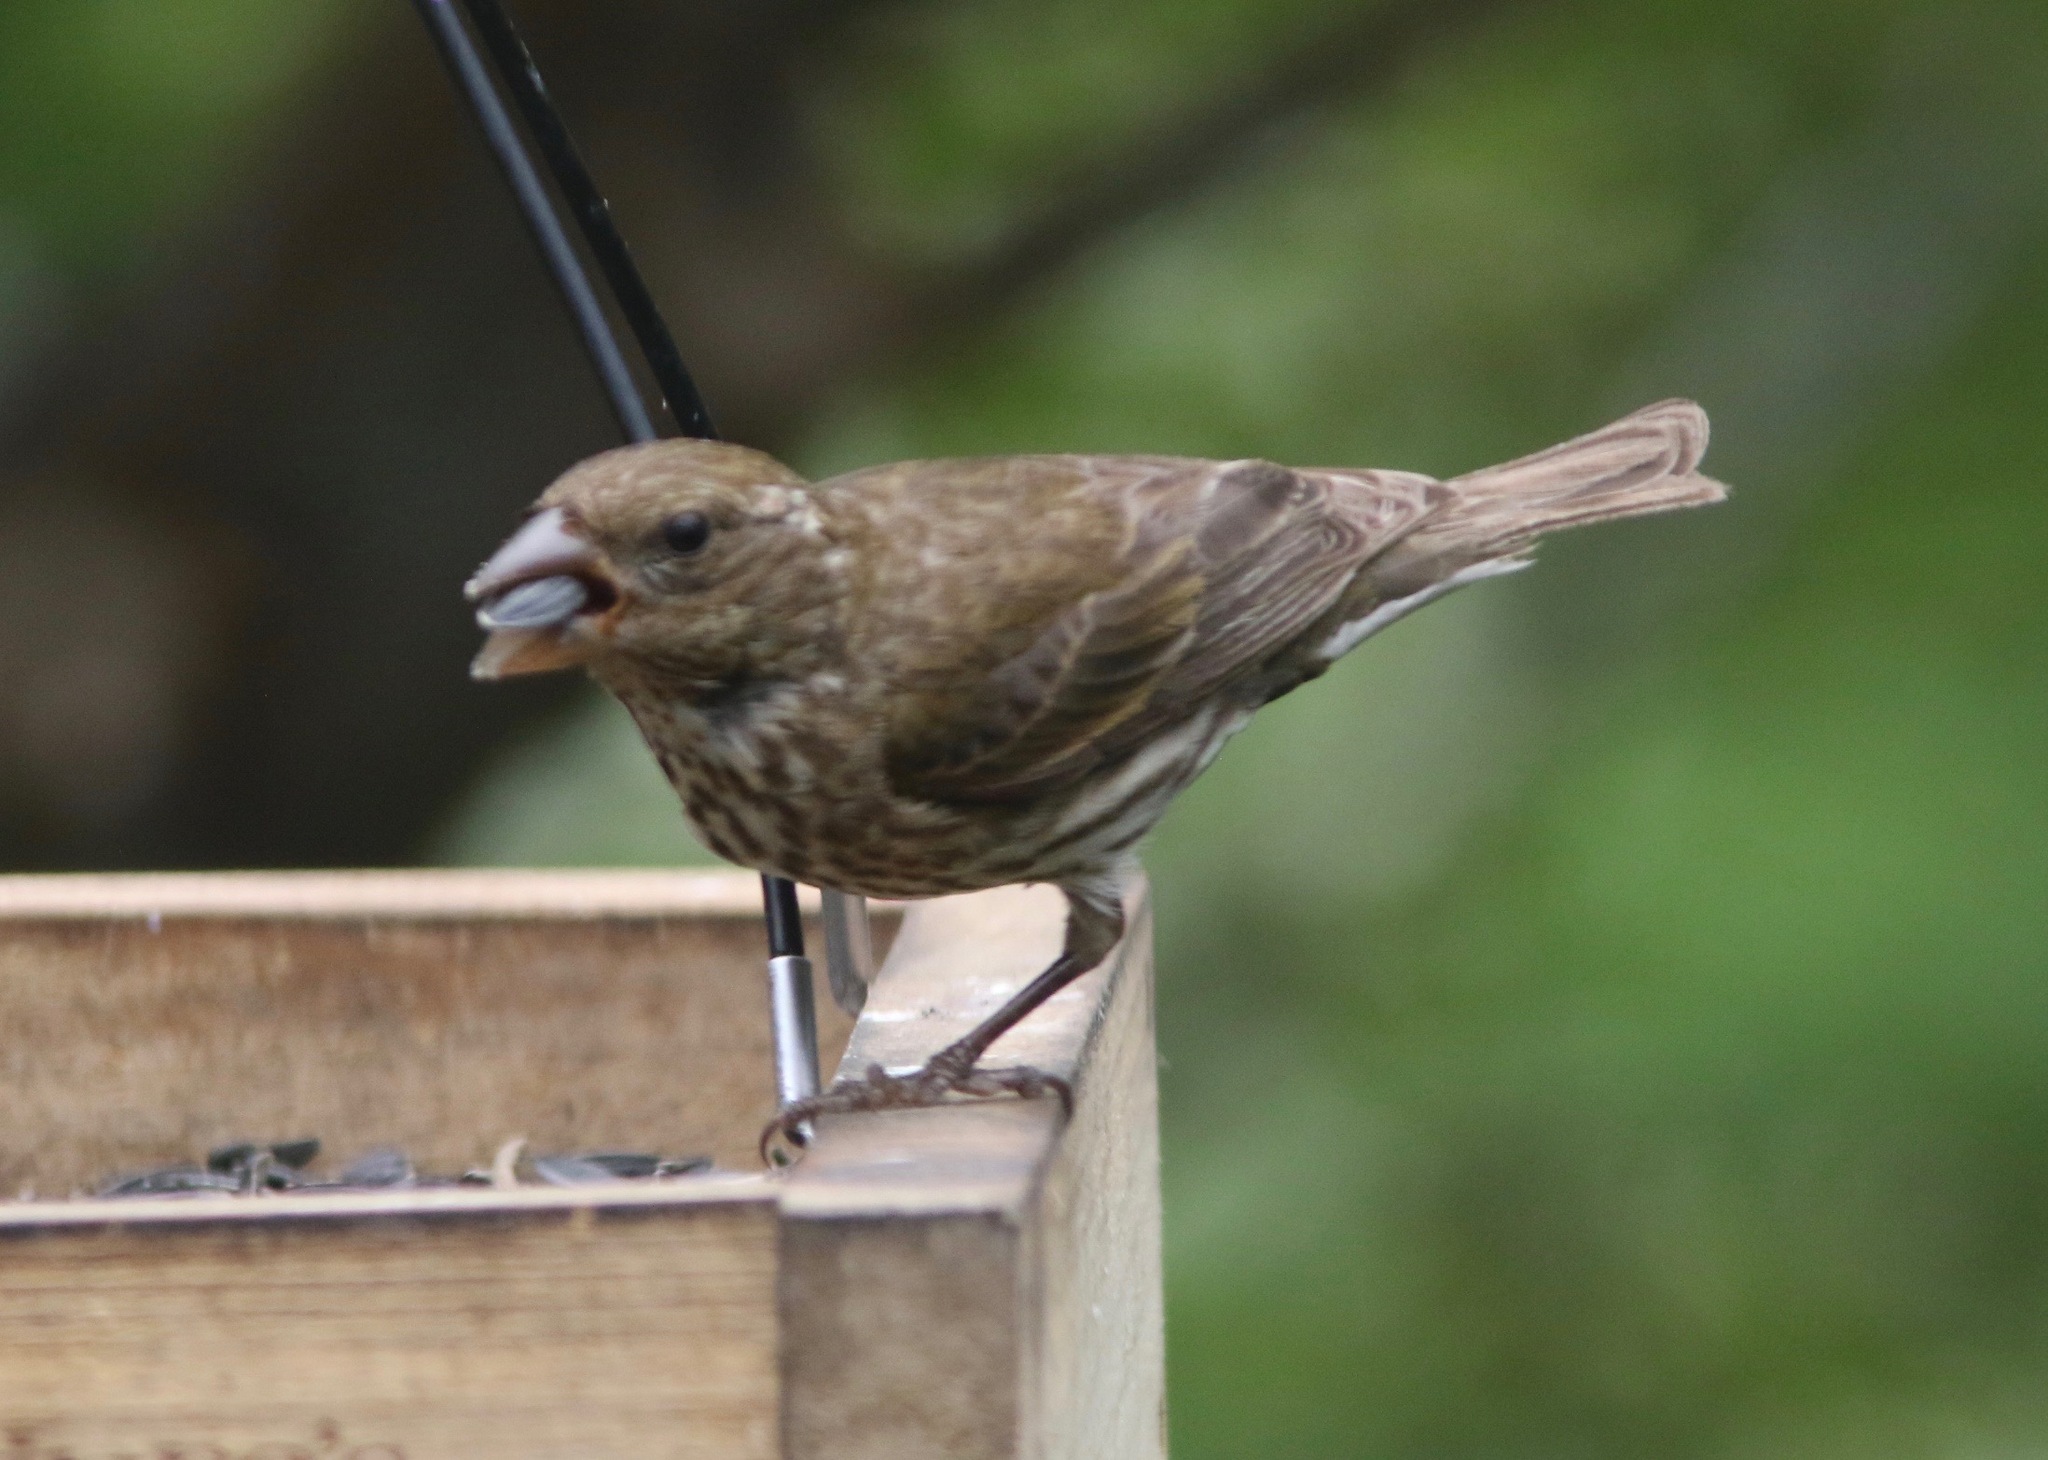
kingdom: Animalia
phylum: Chordata
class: Aves
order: Passeriformes
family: Fringillidae
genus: Haemorhous
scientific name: Haemorhous purpureus
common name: Purple finch
